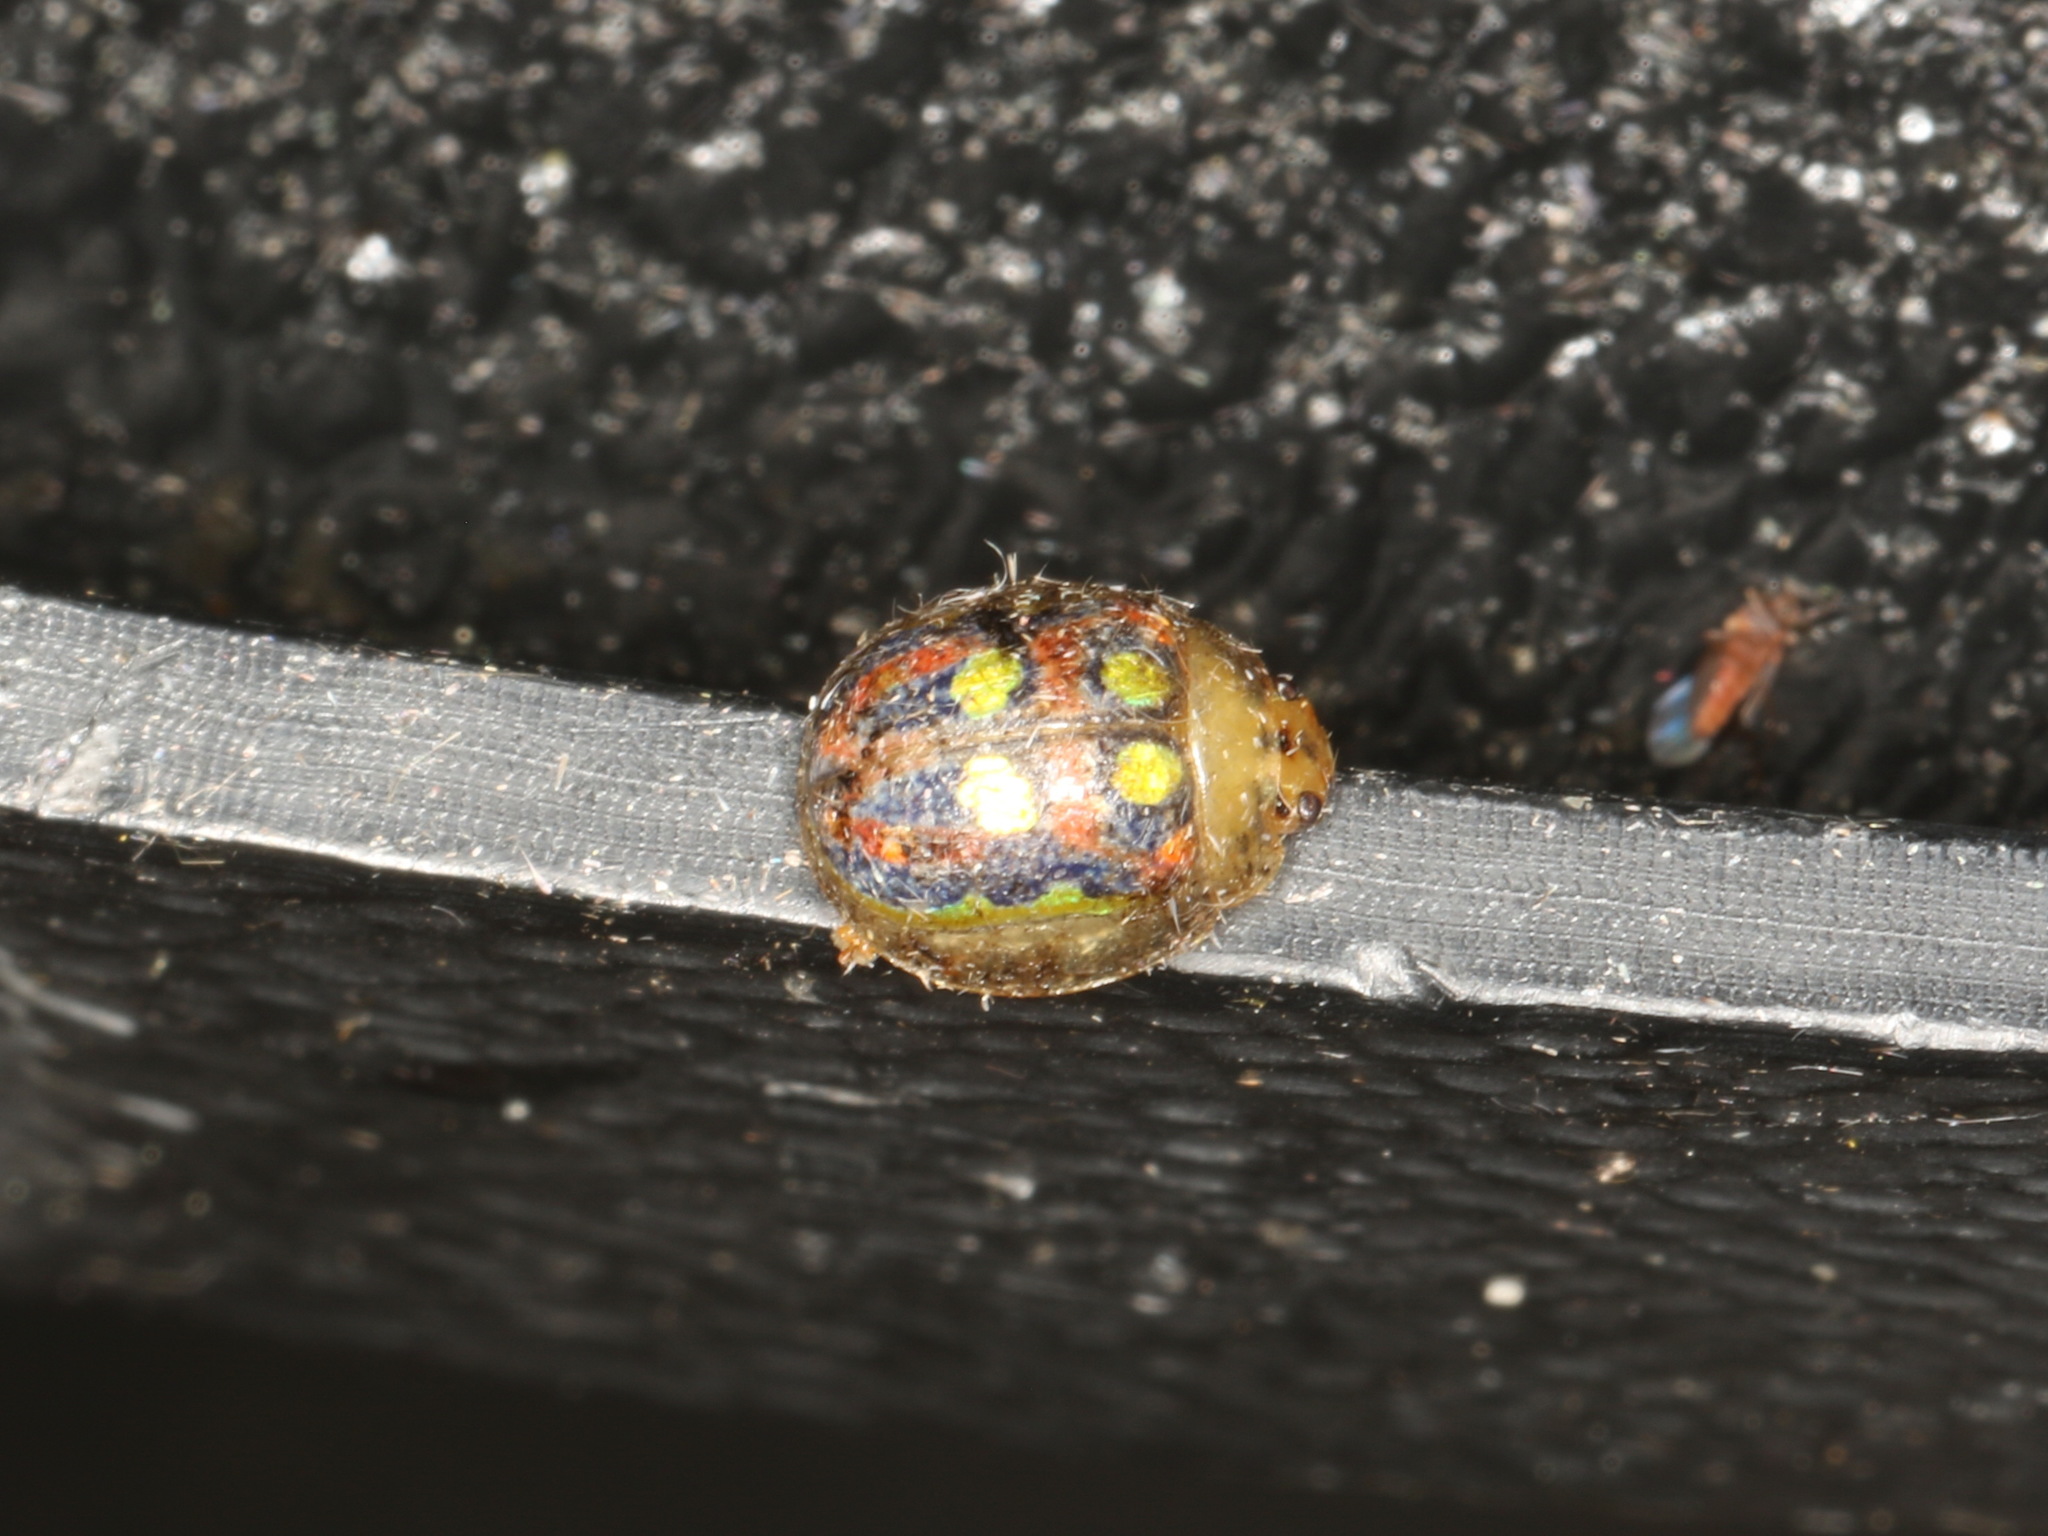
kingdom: Animalia
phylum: Arthropoda
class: Insecta
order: Coleoptera
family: Chrysomelidae
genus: Paropsisterna
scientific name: Paropsisterna
